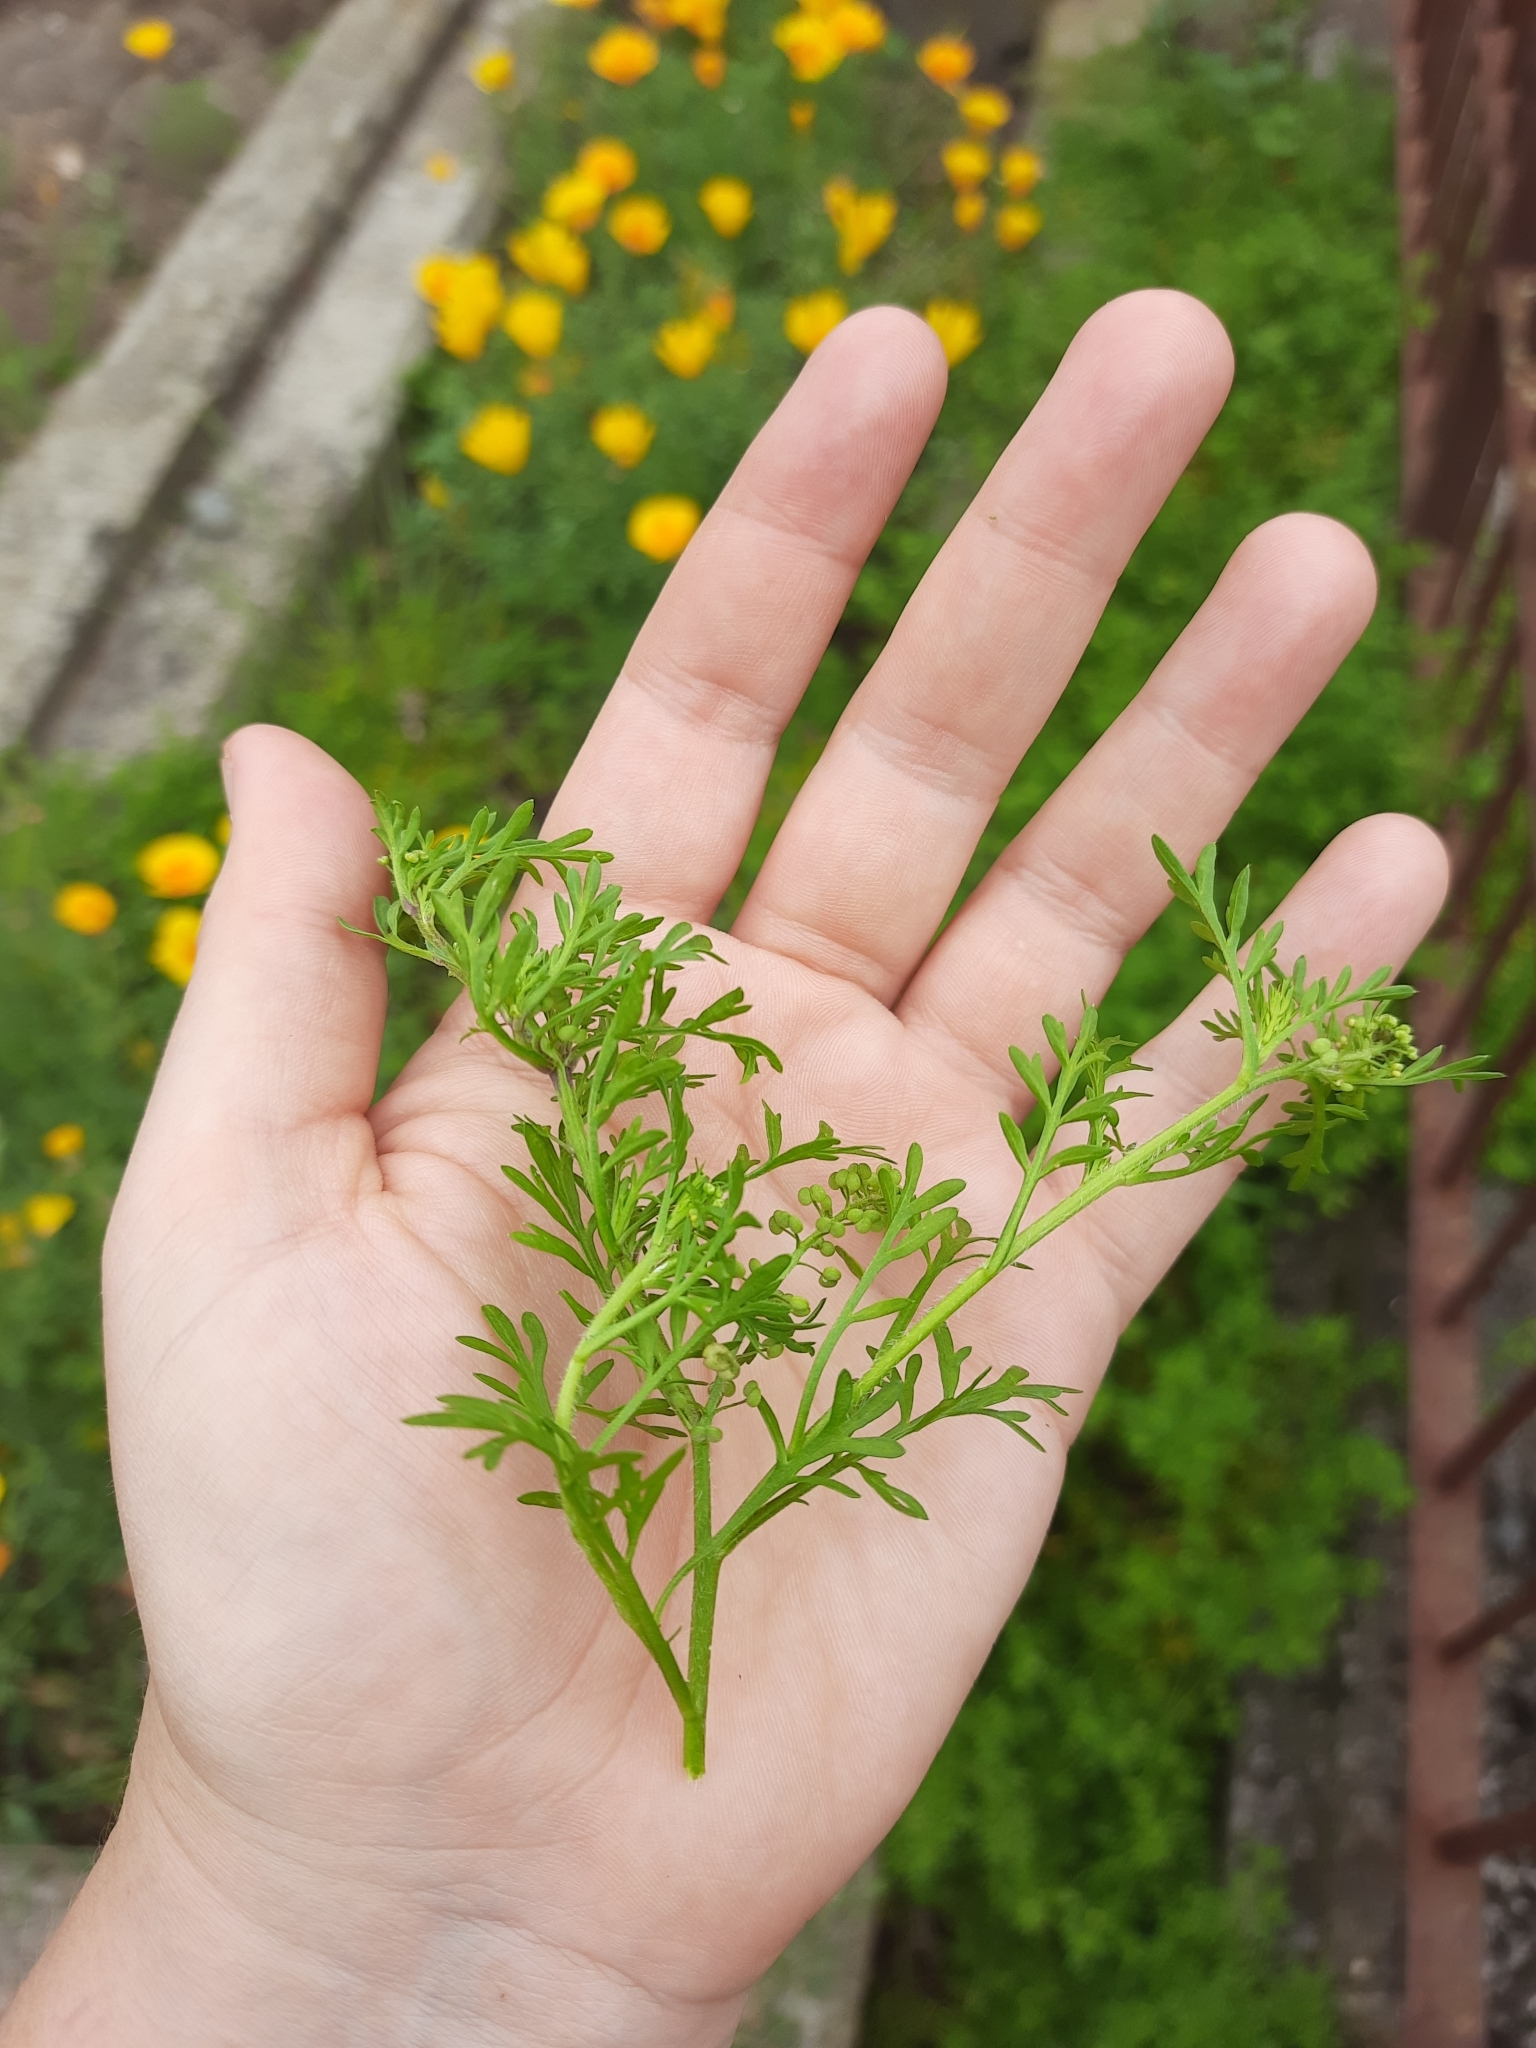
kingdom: Plantae
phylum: Tracheophyta
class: Magnoliopsida
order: Brassicales
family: Brassicaceae
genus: Lepidium
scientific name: Lepidium didymum
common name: Lesser swinecress
